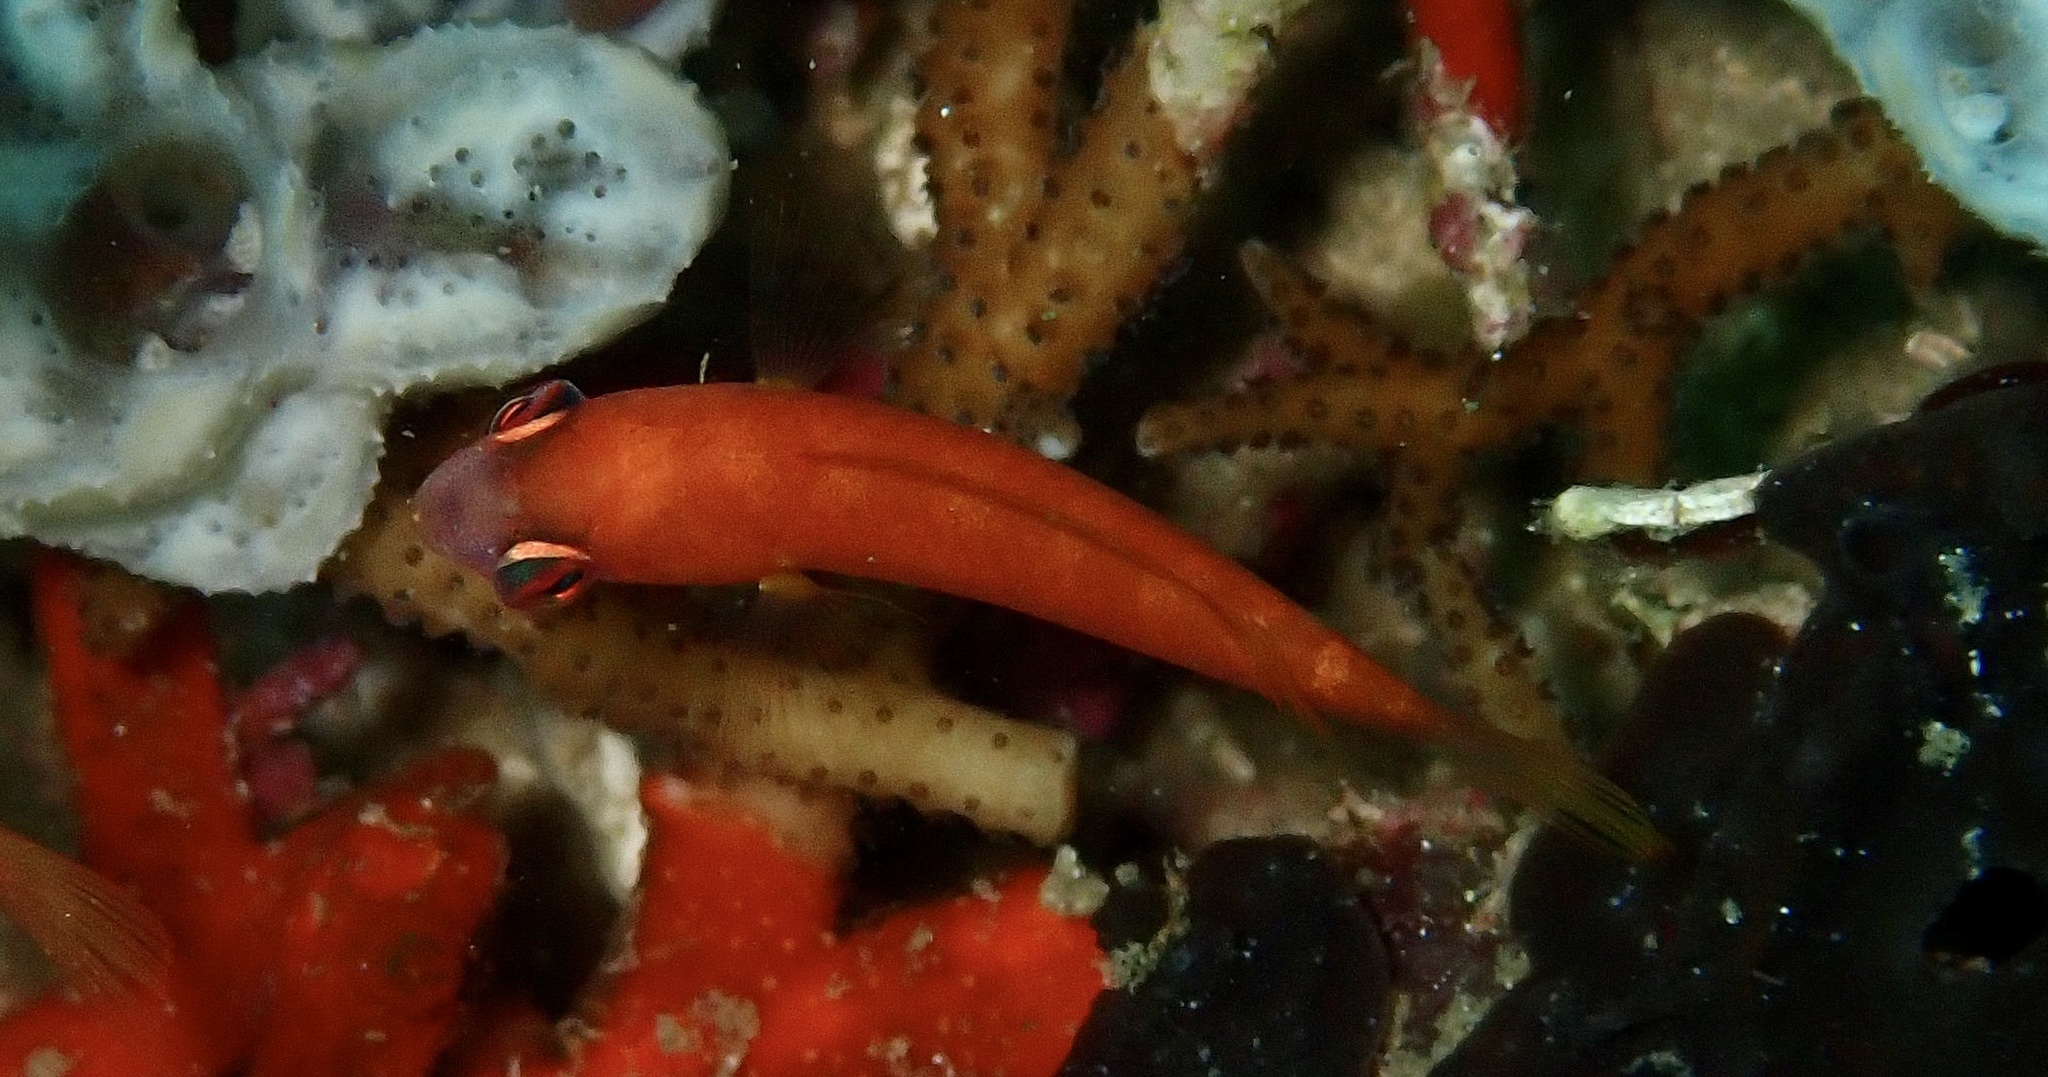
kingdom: Animalia
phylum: Chordata
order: Perciformes
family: Labridae
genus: Paracheilinus
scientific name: Paracheilinus paineorum
